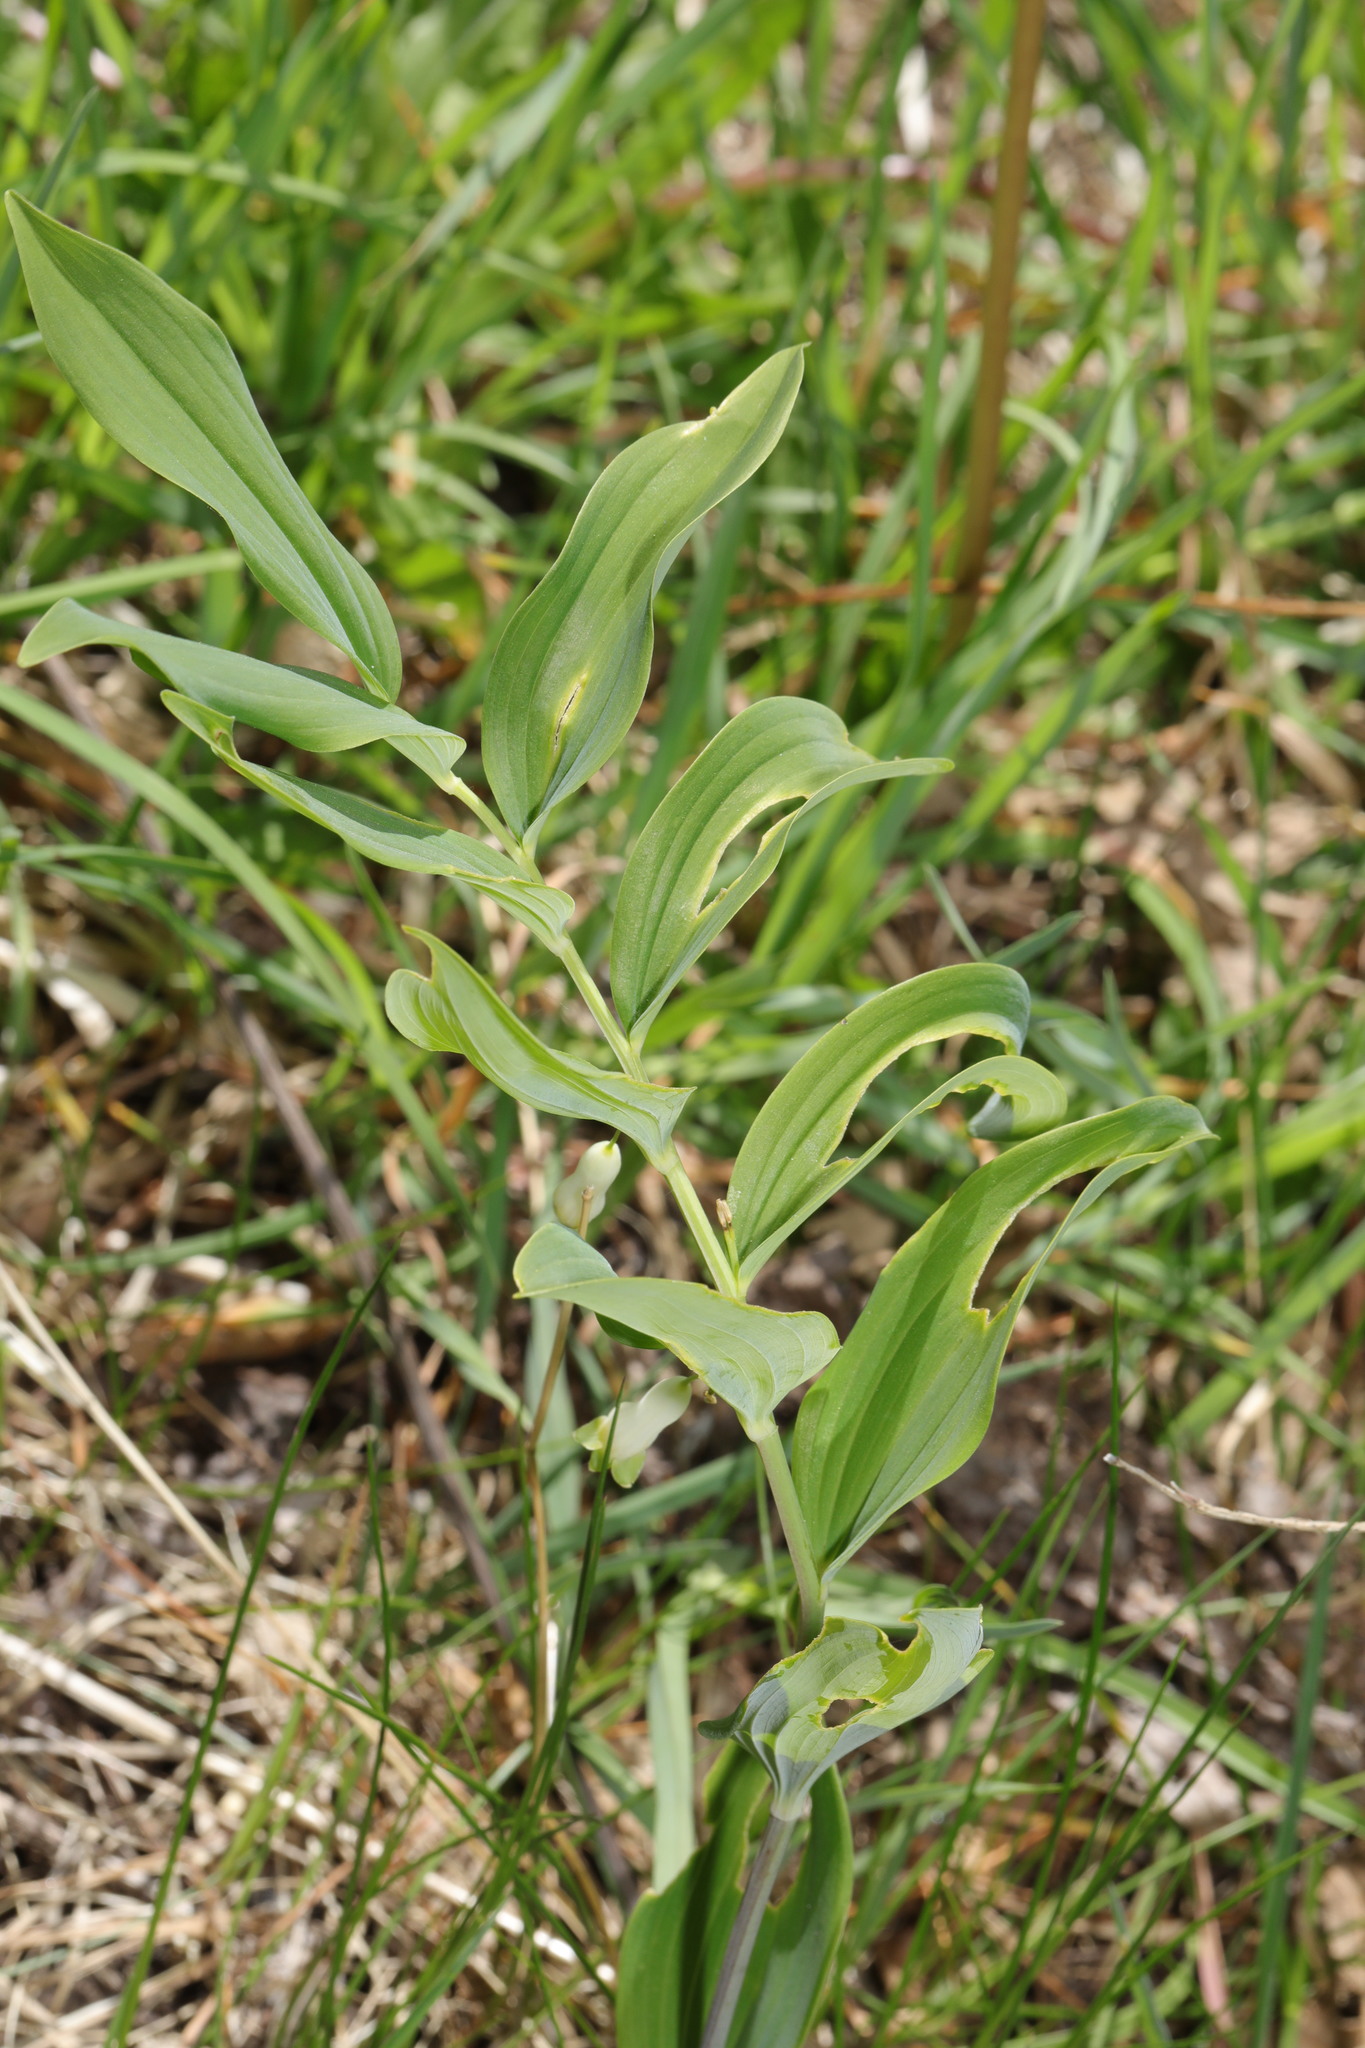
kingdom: Plantae
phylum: Tracheophyta
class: Liliopsida
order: Asparagales
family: Asparagaceae
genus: Polygonatum
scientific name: Polygonatum hybridum
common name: Garden solomon's-seal
